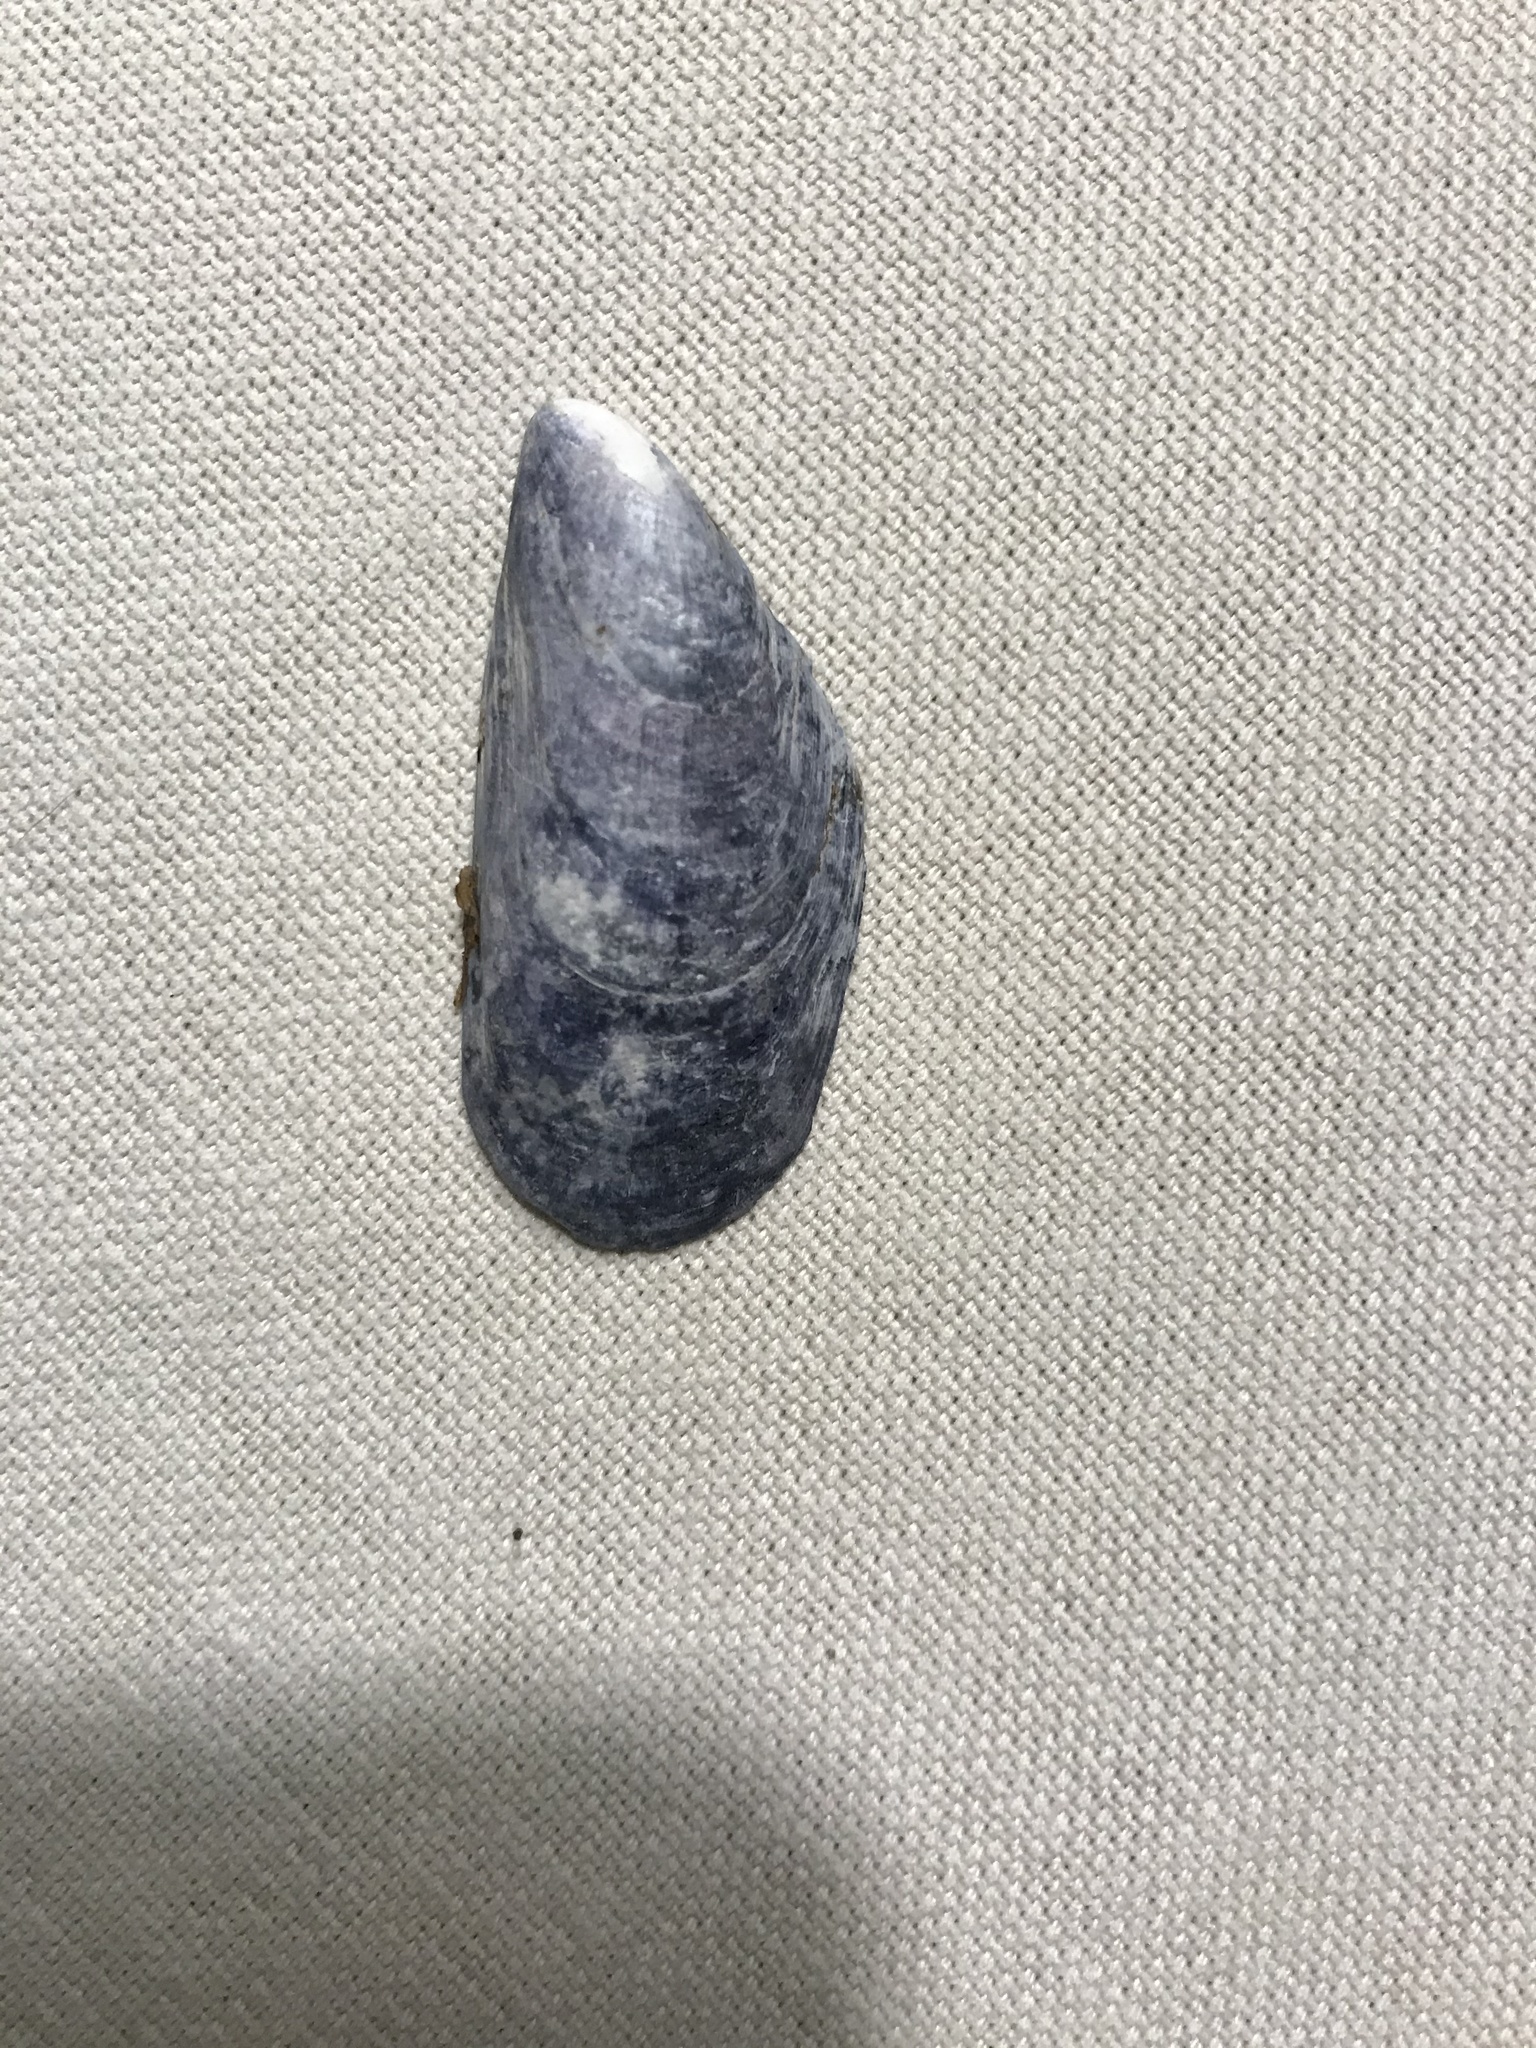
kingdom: Animalia
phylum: Mollusca
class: Bivalvia
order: Mytilida
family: Mytilidae
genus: Mytilus
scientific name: Mytilus edulis
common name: Blue mussel
